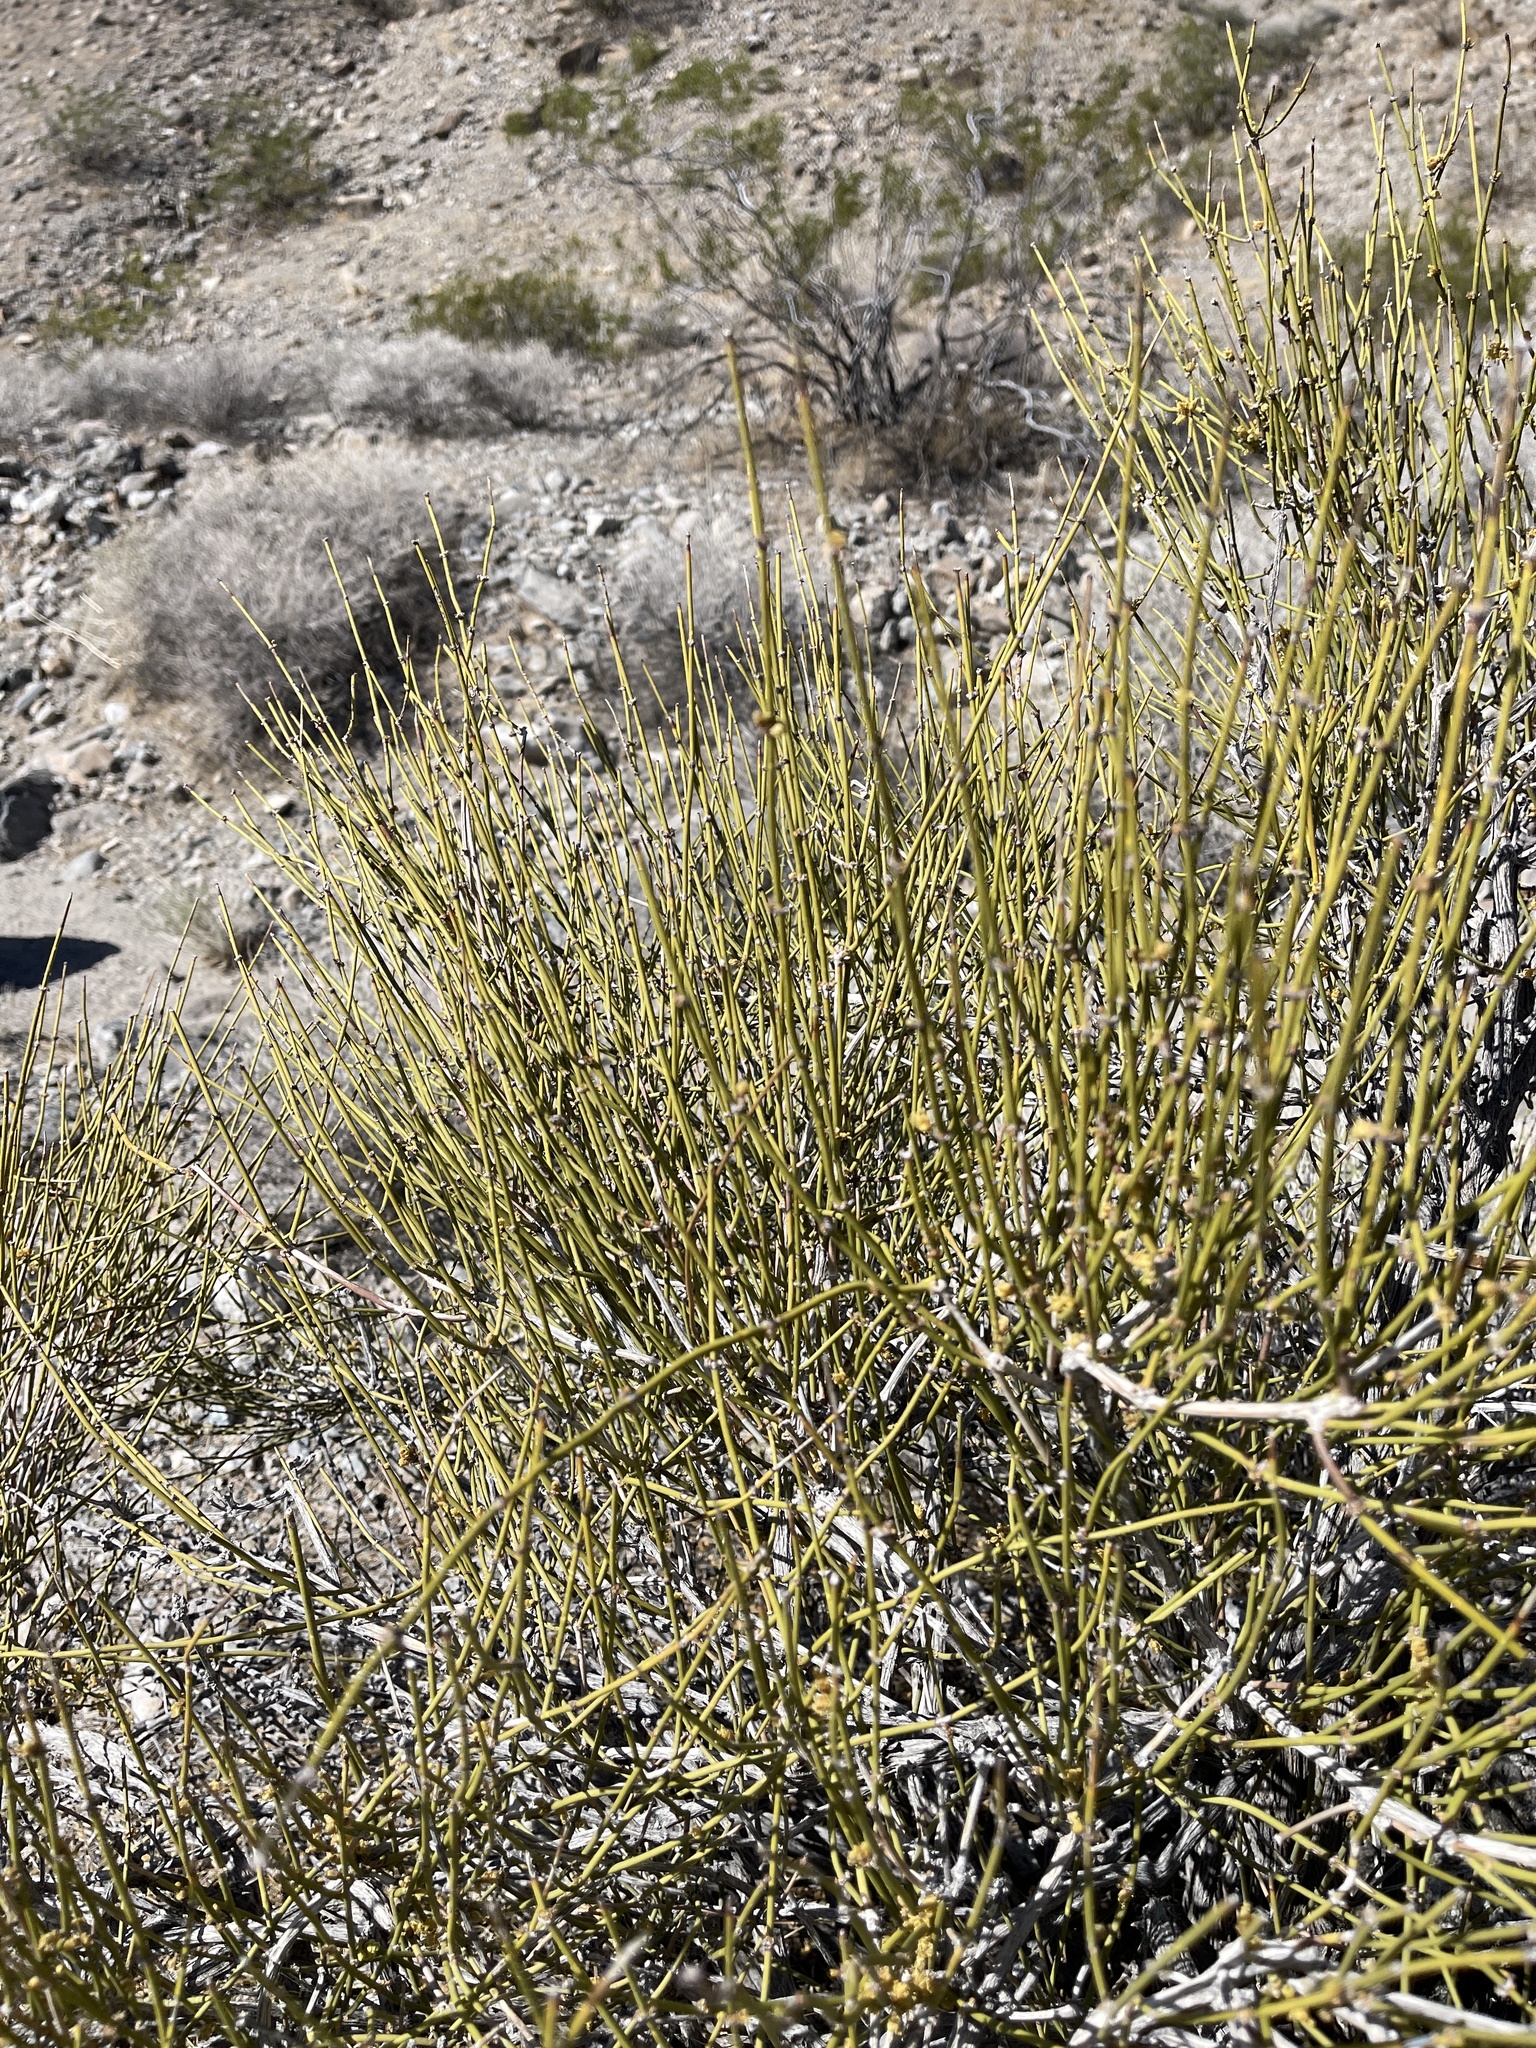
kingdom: Plantae
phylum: Tracheophyta
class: Gnetopsida
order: Ephedrales
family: Ephedraceae
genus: Ephedra
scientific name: Ephedra viridis
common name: Green ephedra
